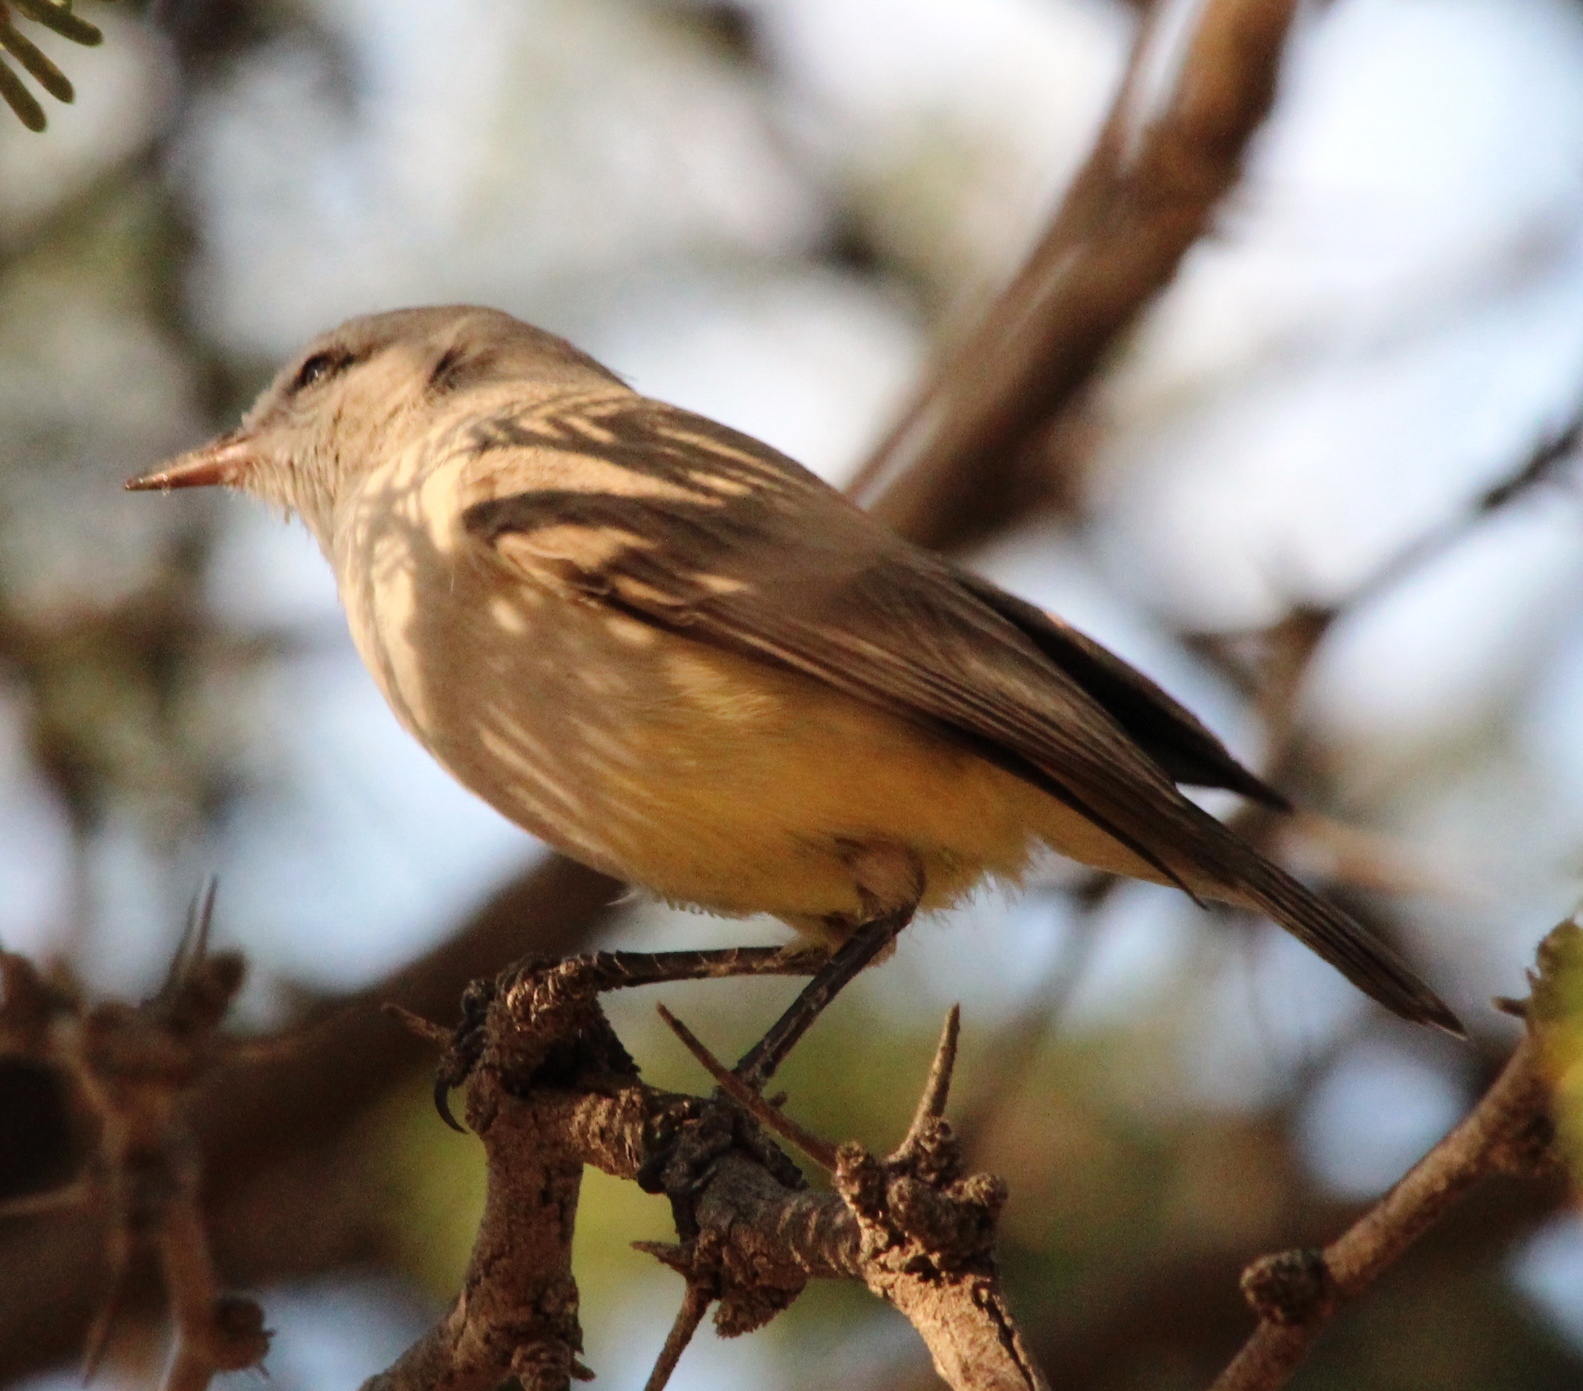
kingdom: Animalia
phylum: Chordata
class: Aves
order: Passeriformes
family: Cisticolidae
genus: Eremomela
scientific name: Eremomela icteropygialis
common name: Yellow-bellied eremomela
